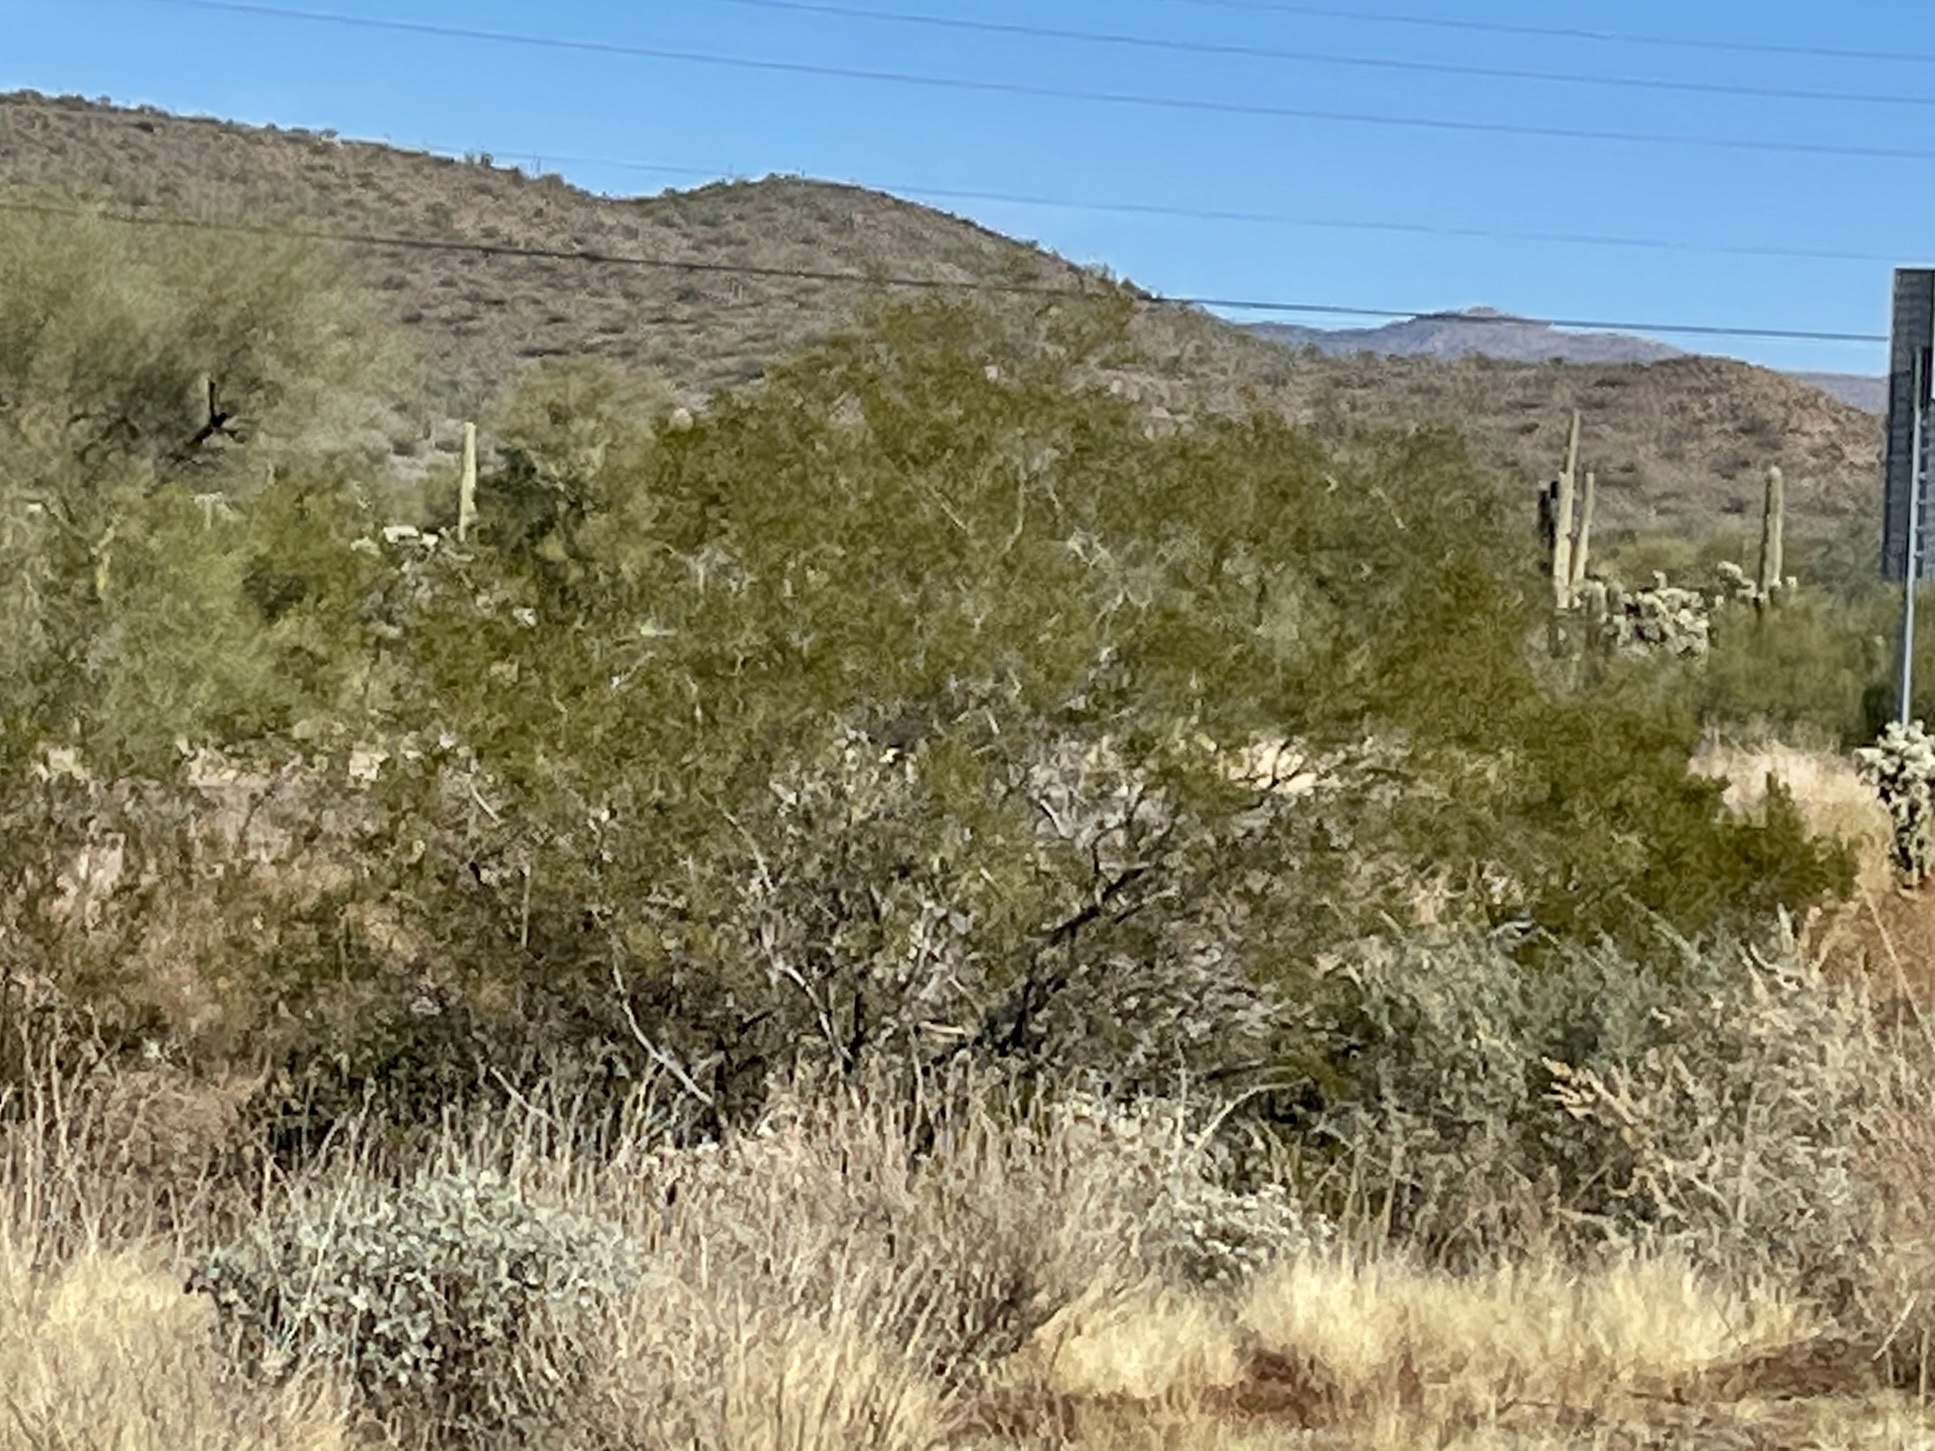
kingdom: Plantae
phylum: Tracheophyta
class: Magnoliopsida
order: Zygophyllales
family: Zygophyllaceae
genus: Larrea
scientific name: Larrea tridentata
